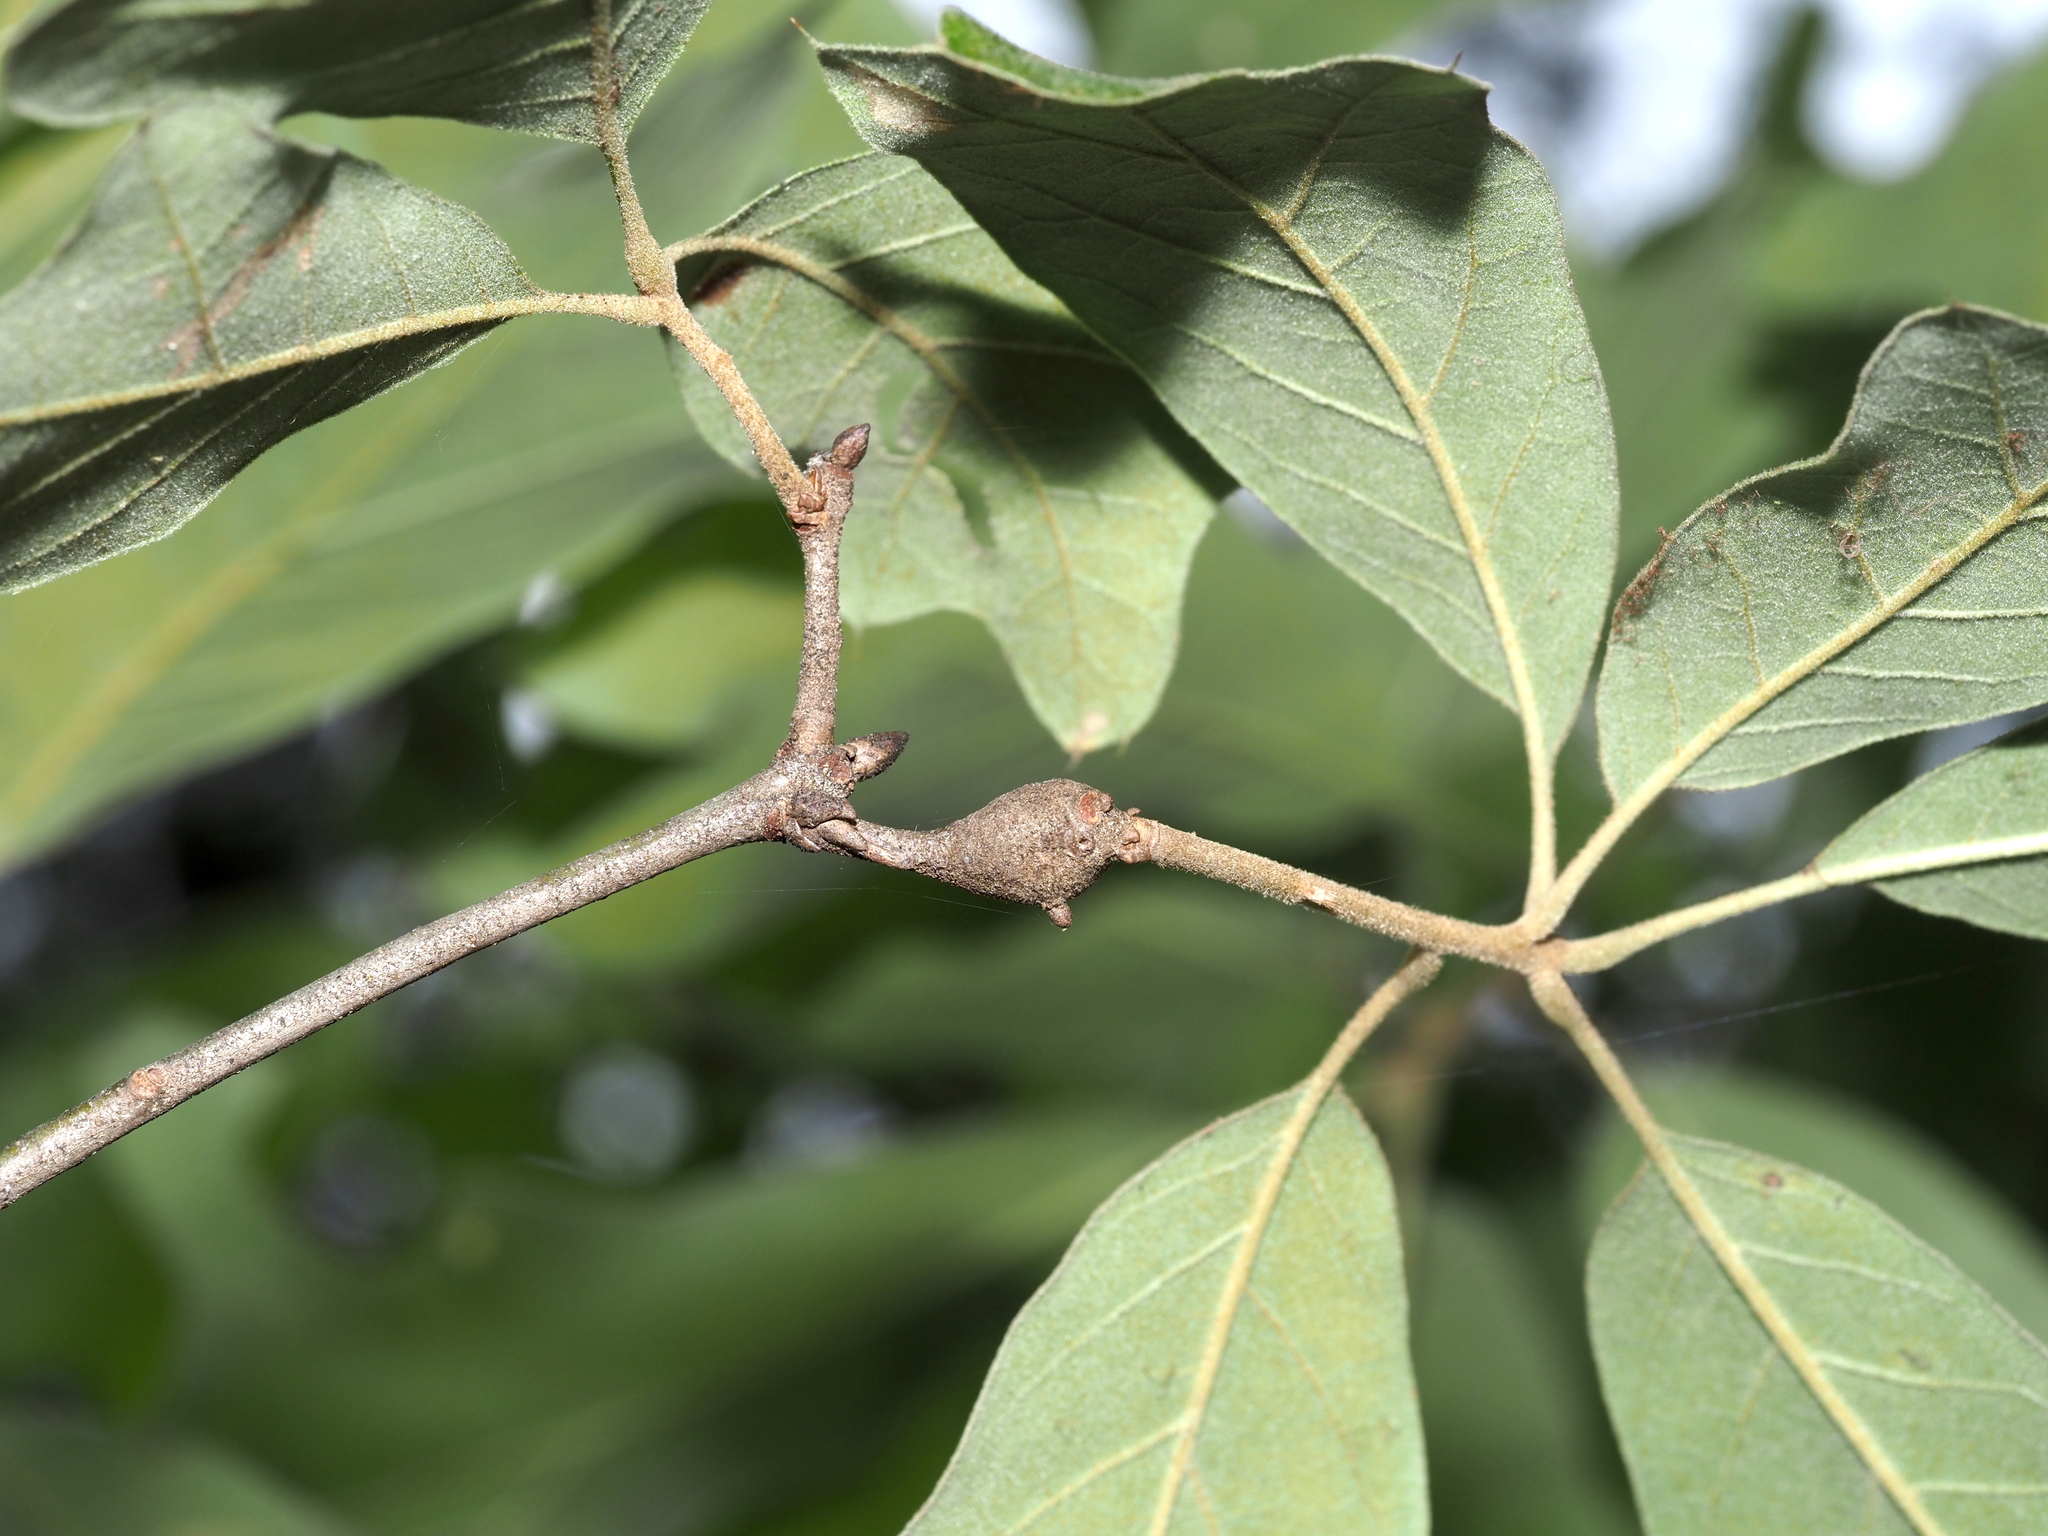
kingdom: Animalia
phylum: Arthropoda
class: Insecta
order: Hymenoptera
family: Cynipidae
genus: Zapatella
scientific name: Zapatella quercusphellos
